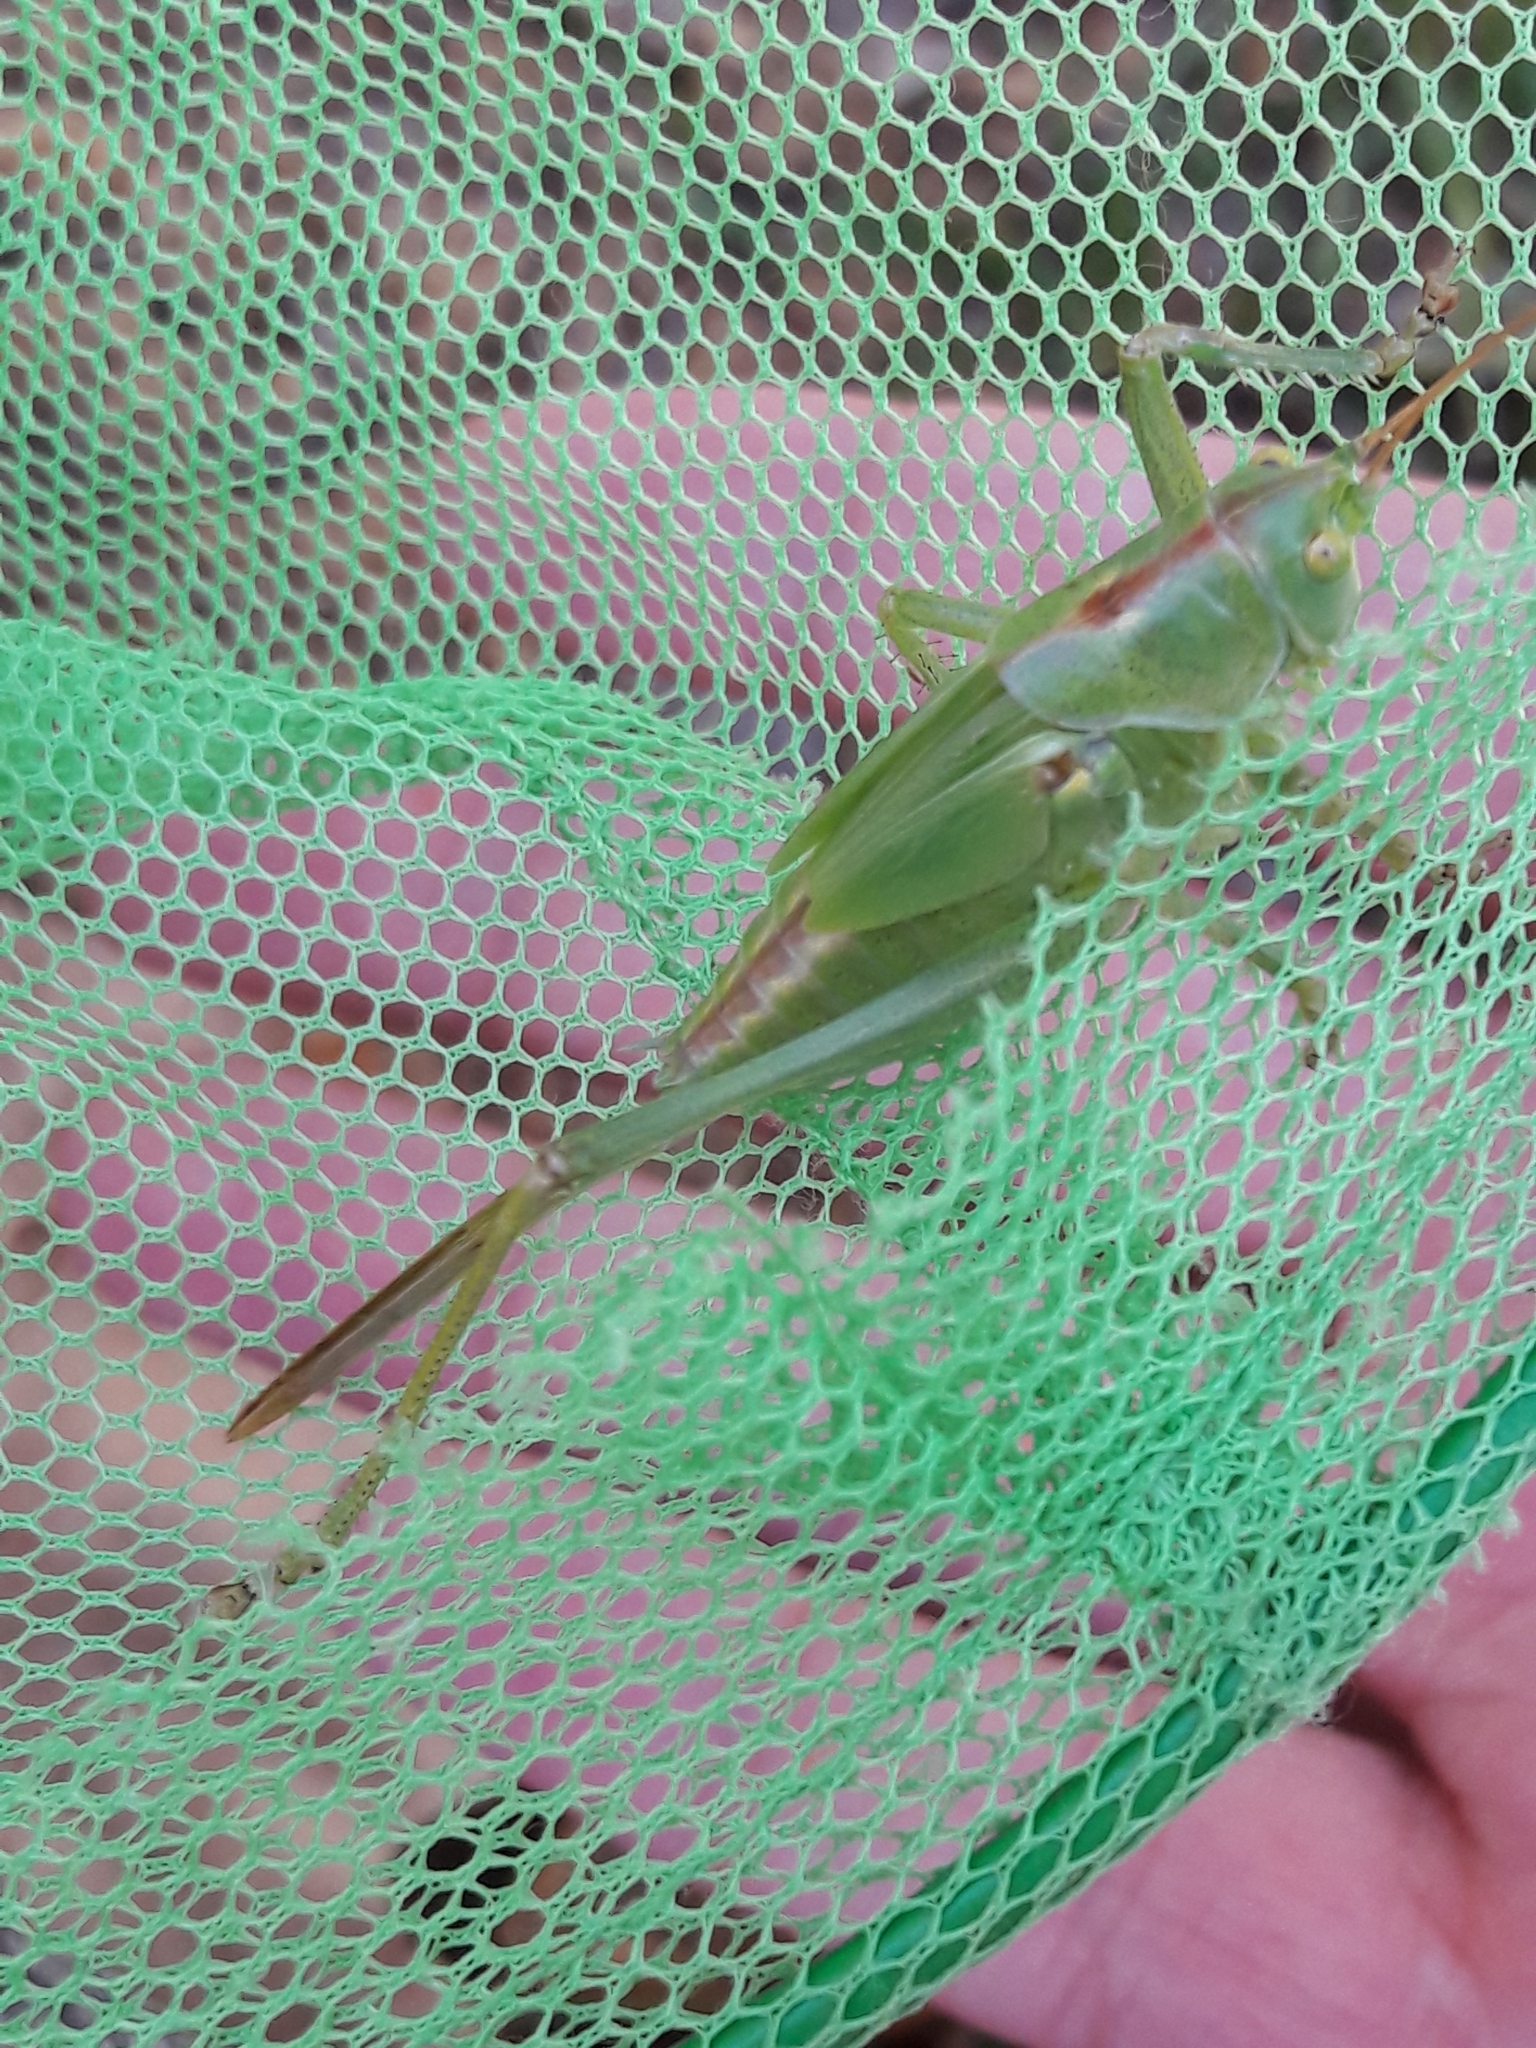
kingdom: Animalia
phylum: Arthropoda
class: Insecta
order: Orthoptera
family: Tettigoniidae
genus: Tettigonia
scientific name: Tettigonia viridissima
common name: Great green bush-cricket
